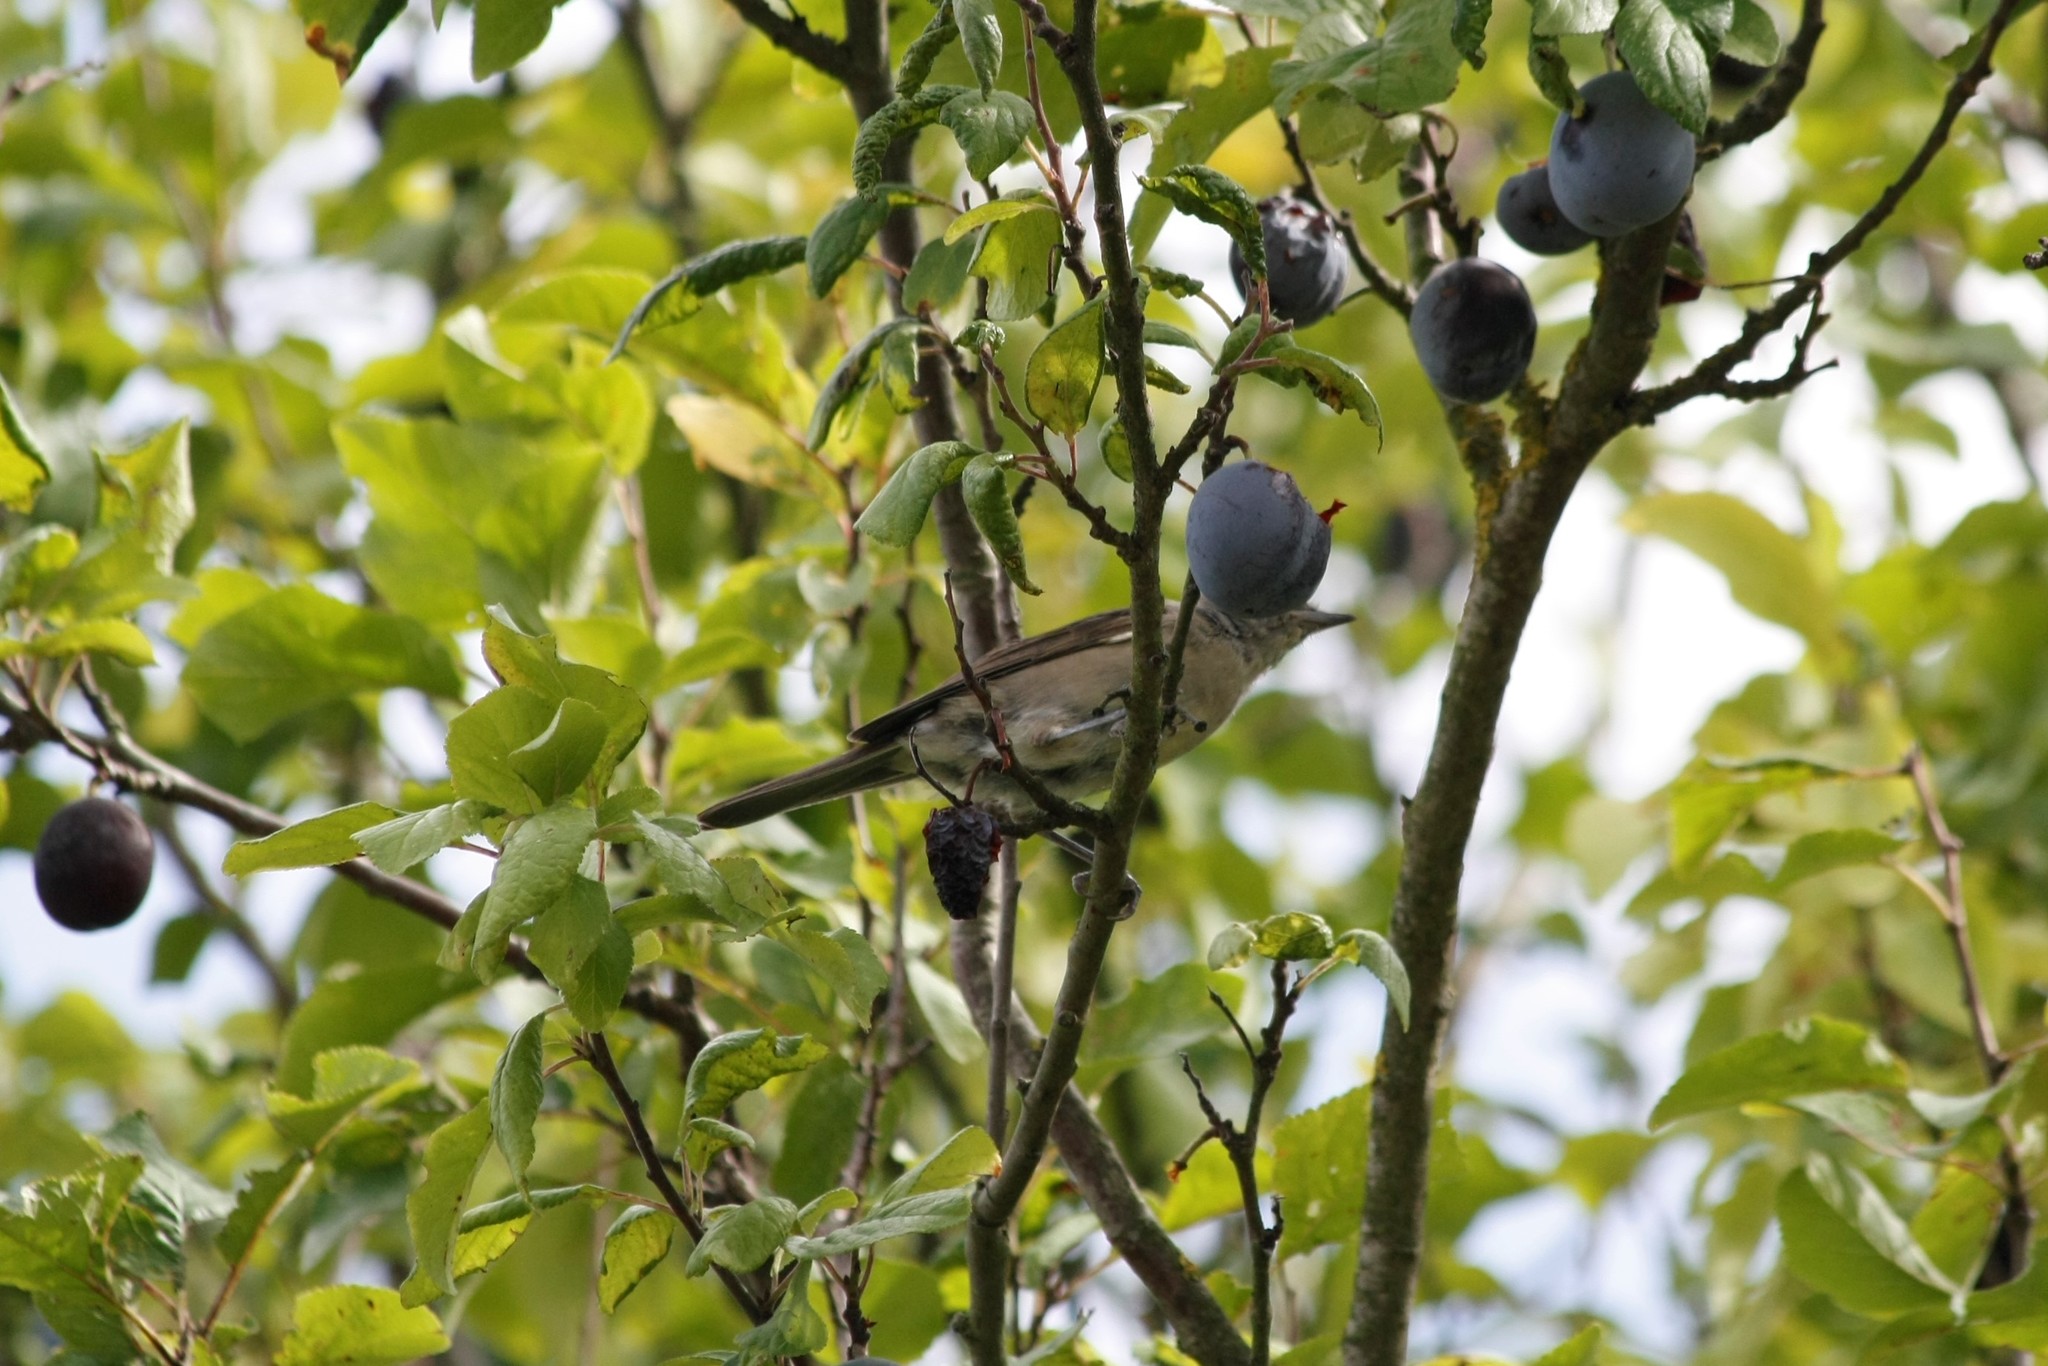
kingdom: Animalia
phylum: Chordata
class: Aves
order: Passeriformes
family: Sylviidae
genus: Sylvia
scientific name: Sylvia atricapilla
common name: Eurasian blackcap
